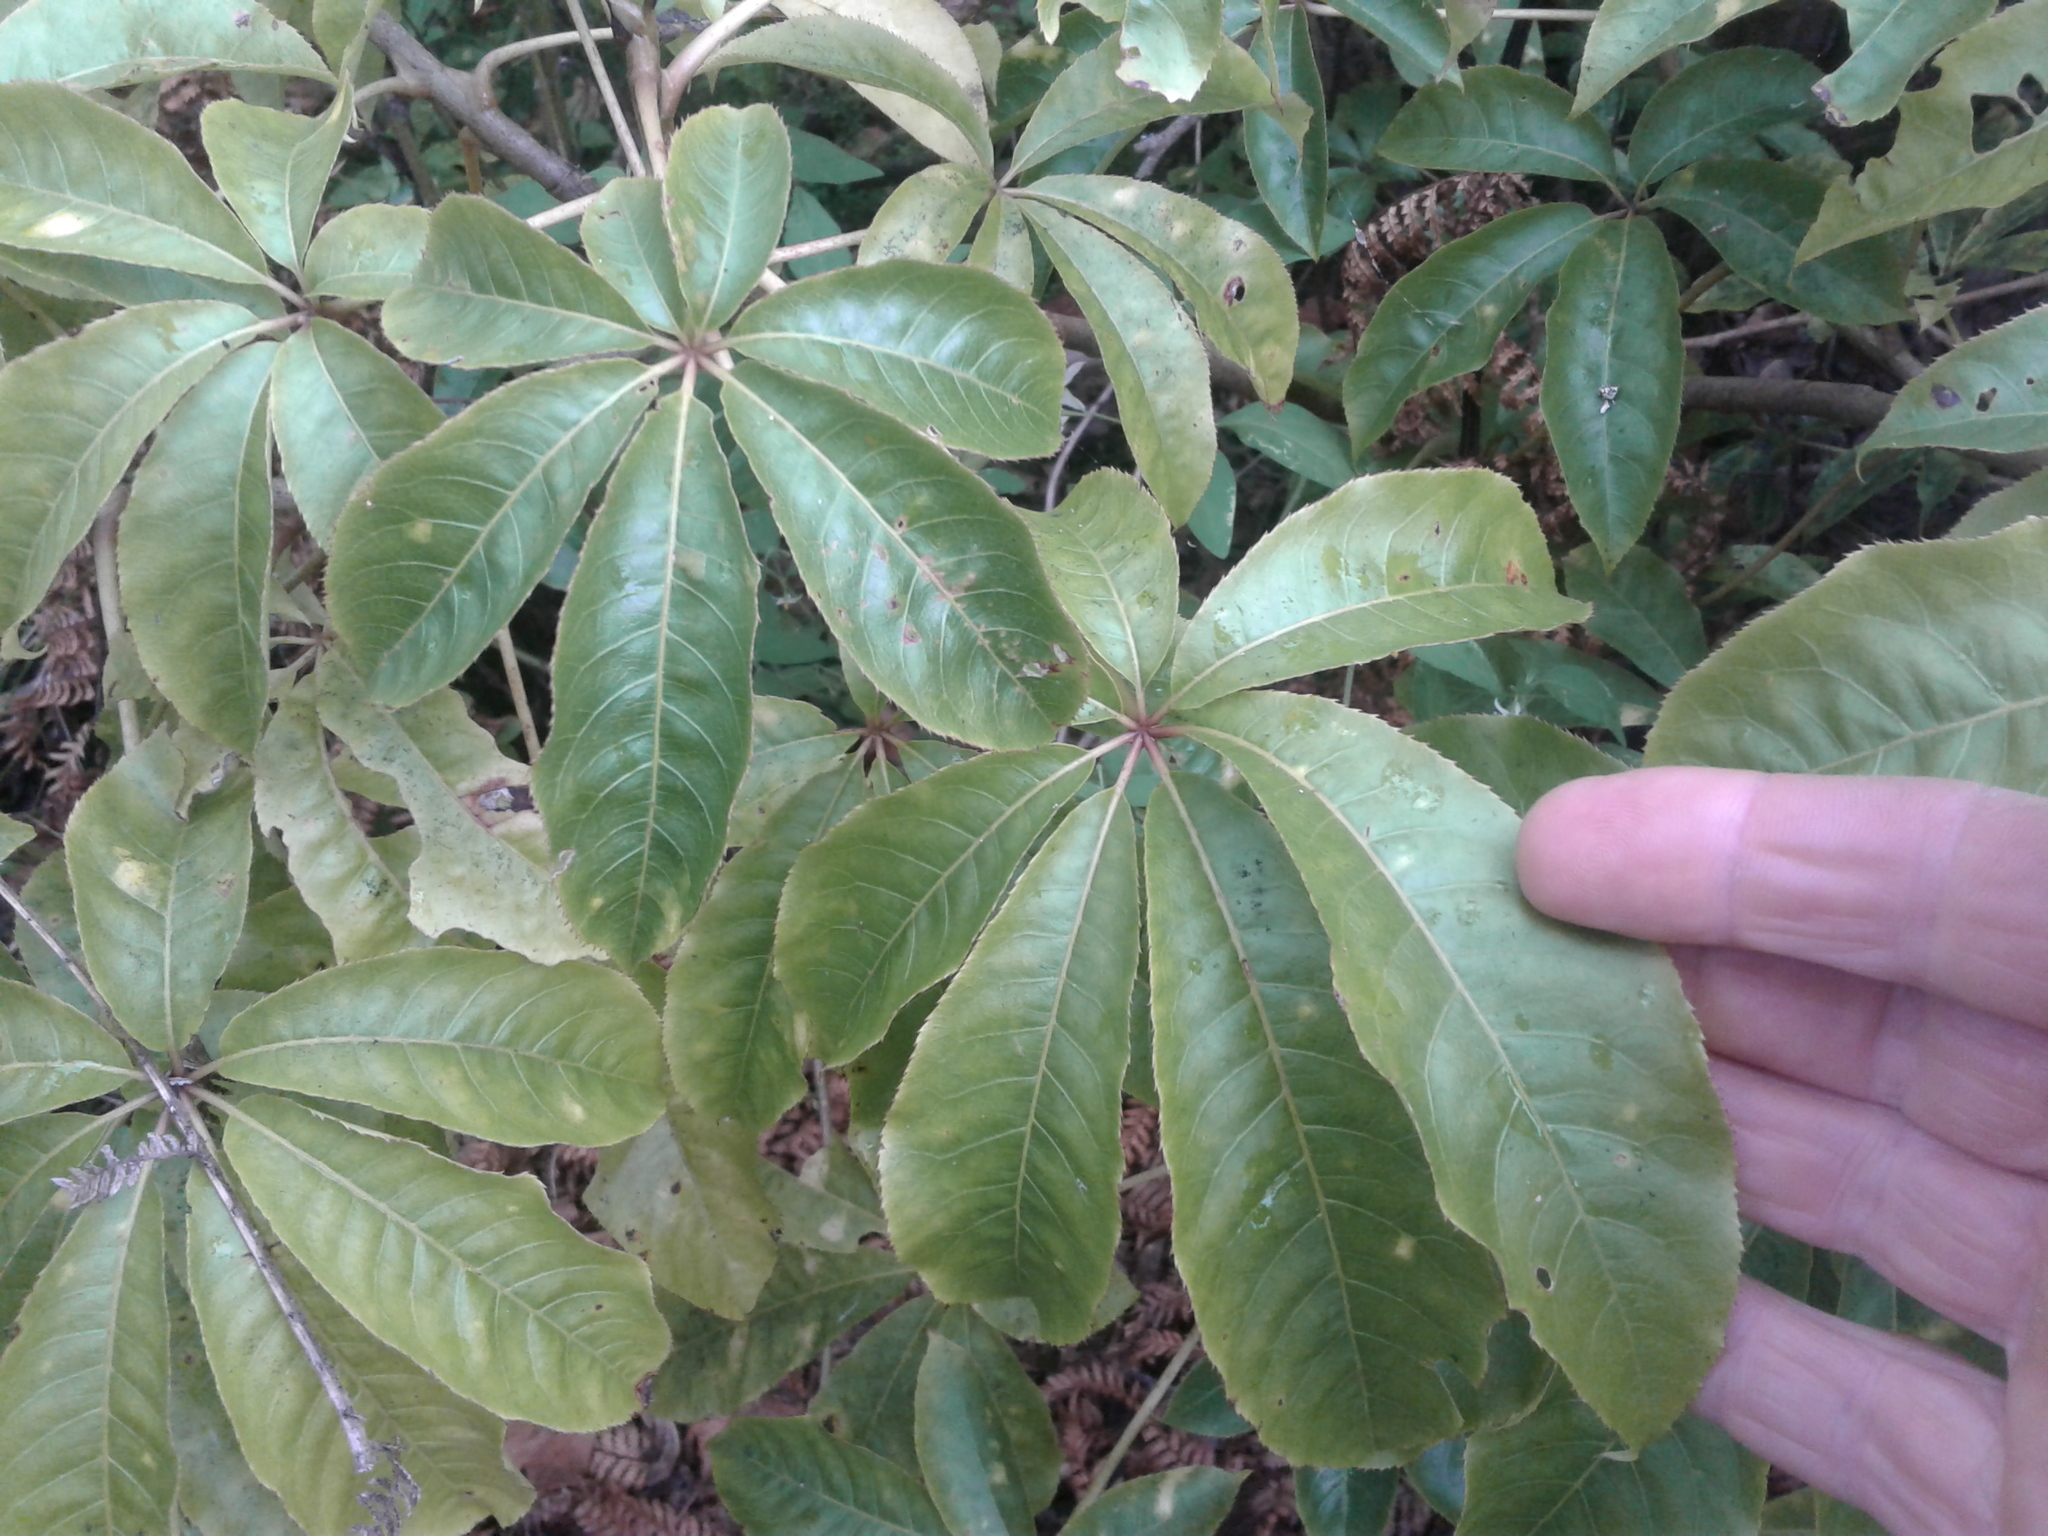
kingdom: Plantae
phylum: Tracheophyta
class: Magnoliopsida
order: Apiales
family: Araliaceae
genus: Schefflera
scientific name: Schefflera digitata
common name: Pate
